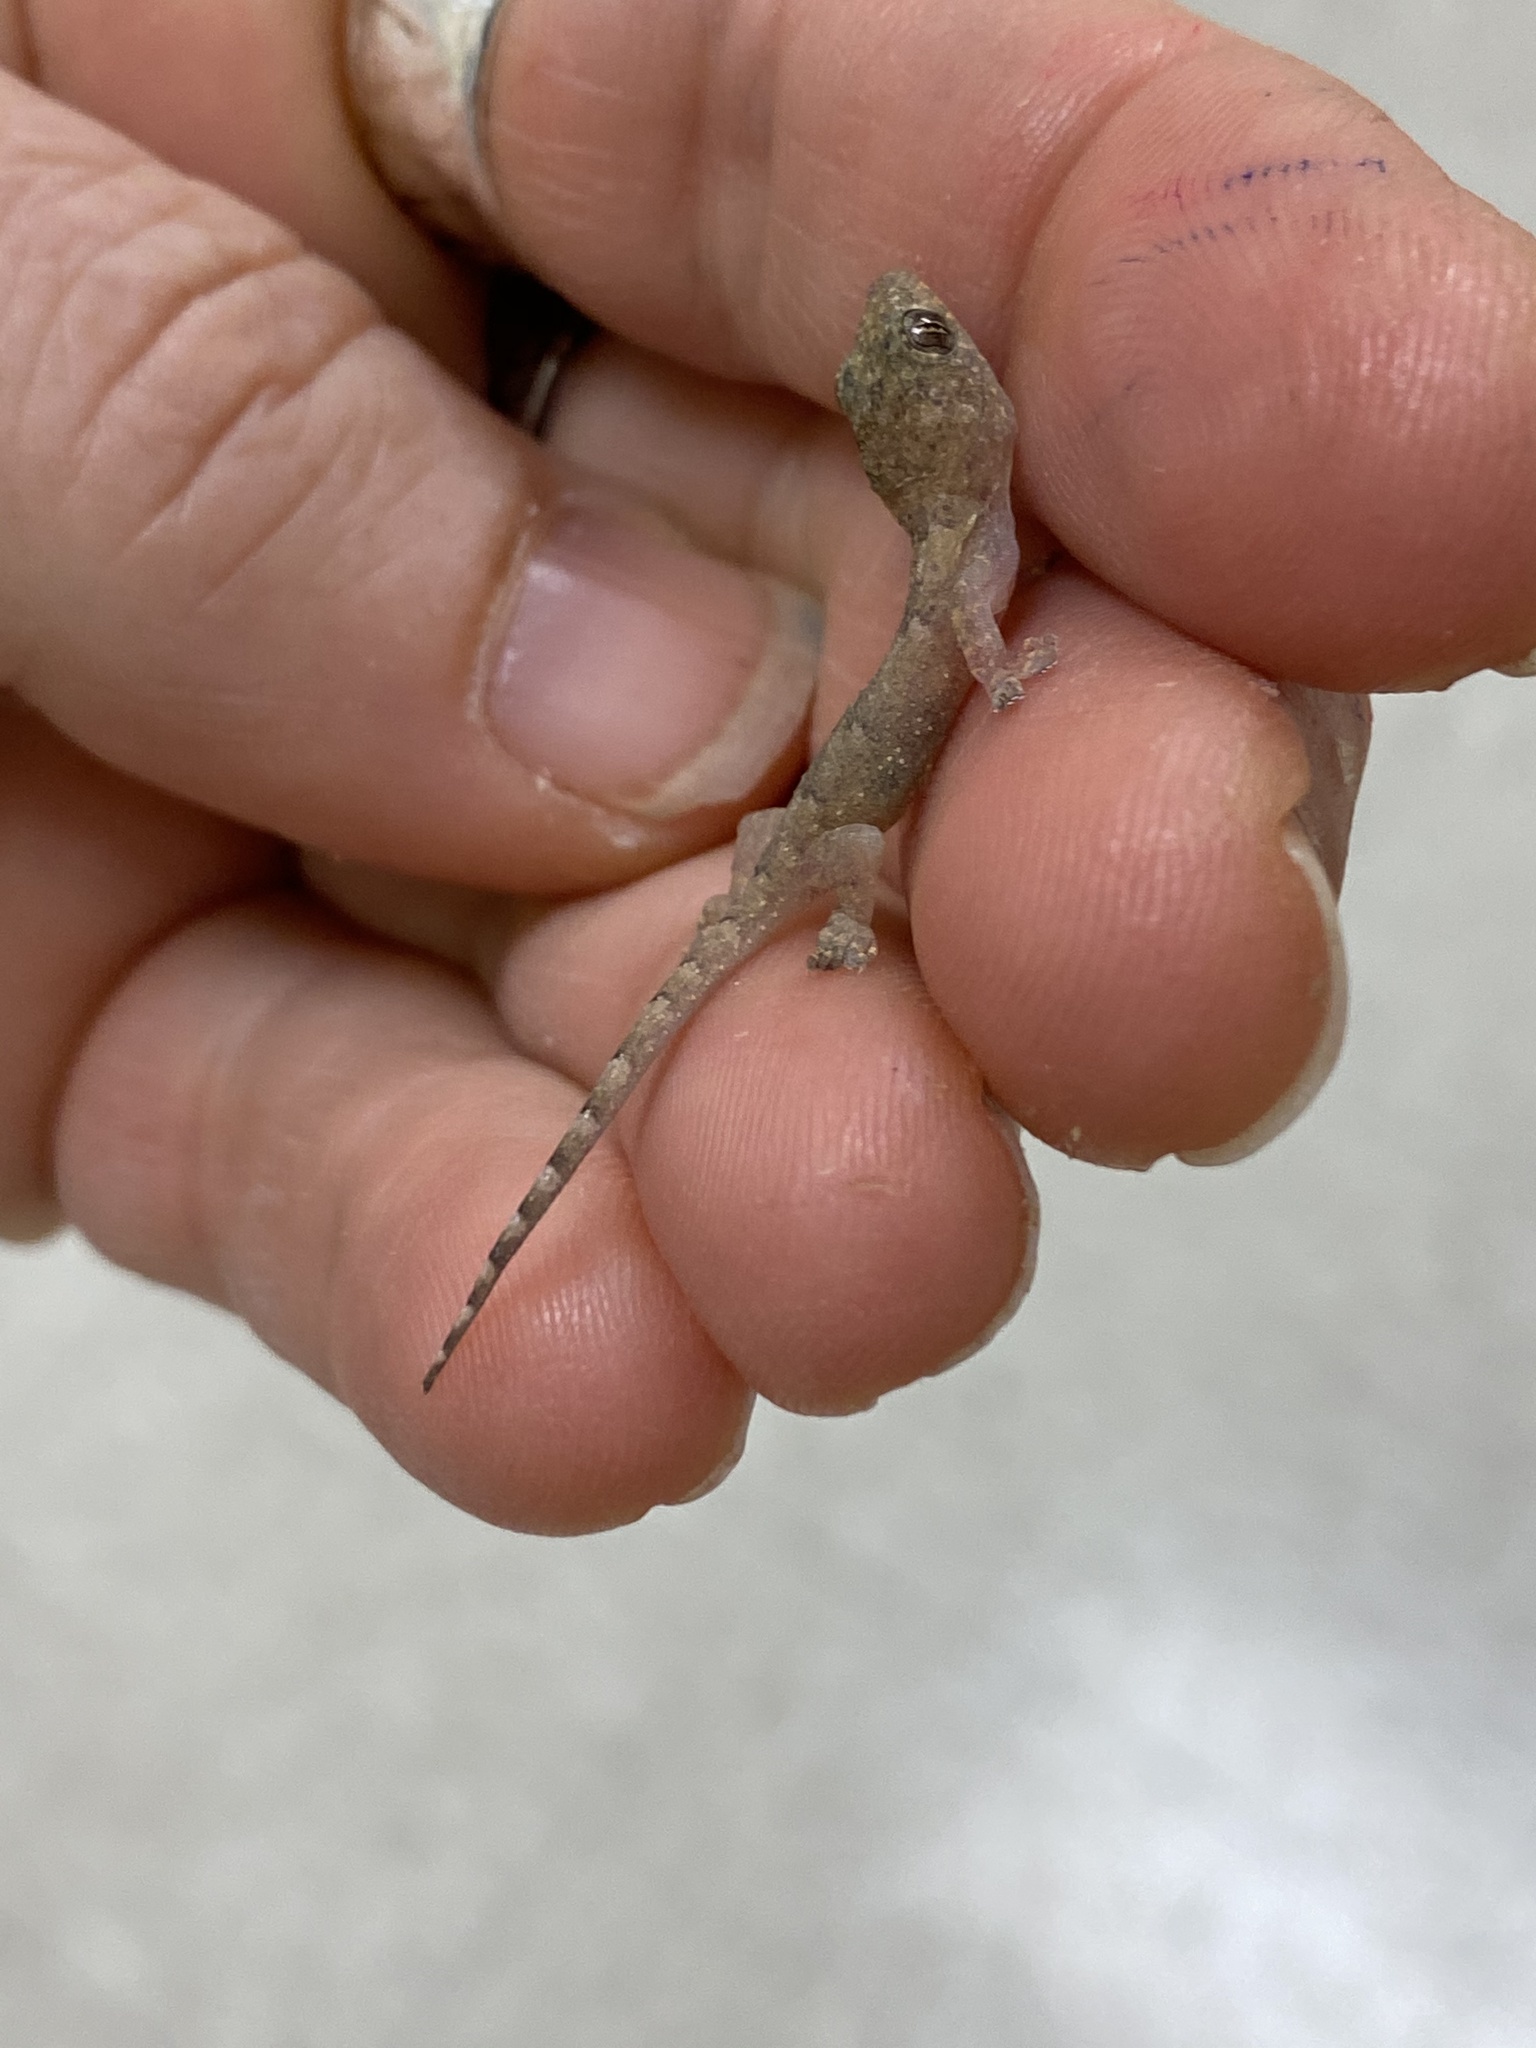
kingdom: Animalia
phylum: Chordata
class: Squamata
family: Gekkonidae
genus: Hemidactylus
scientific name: Hemidactylus mabouia
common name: House gecko
